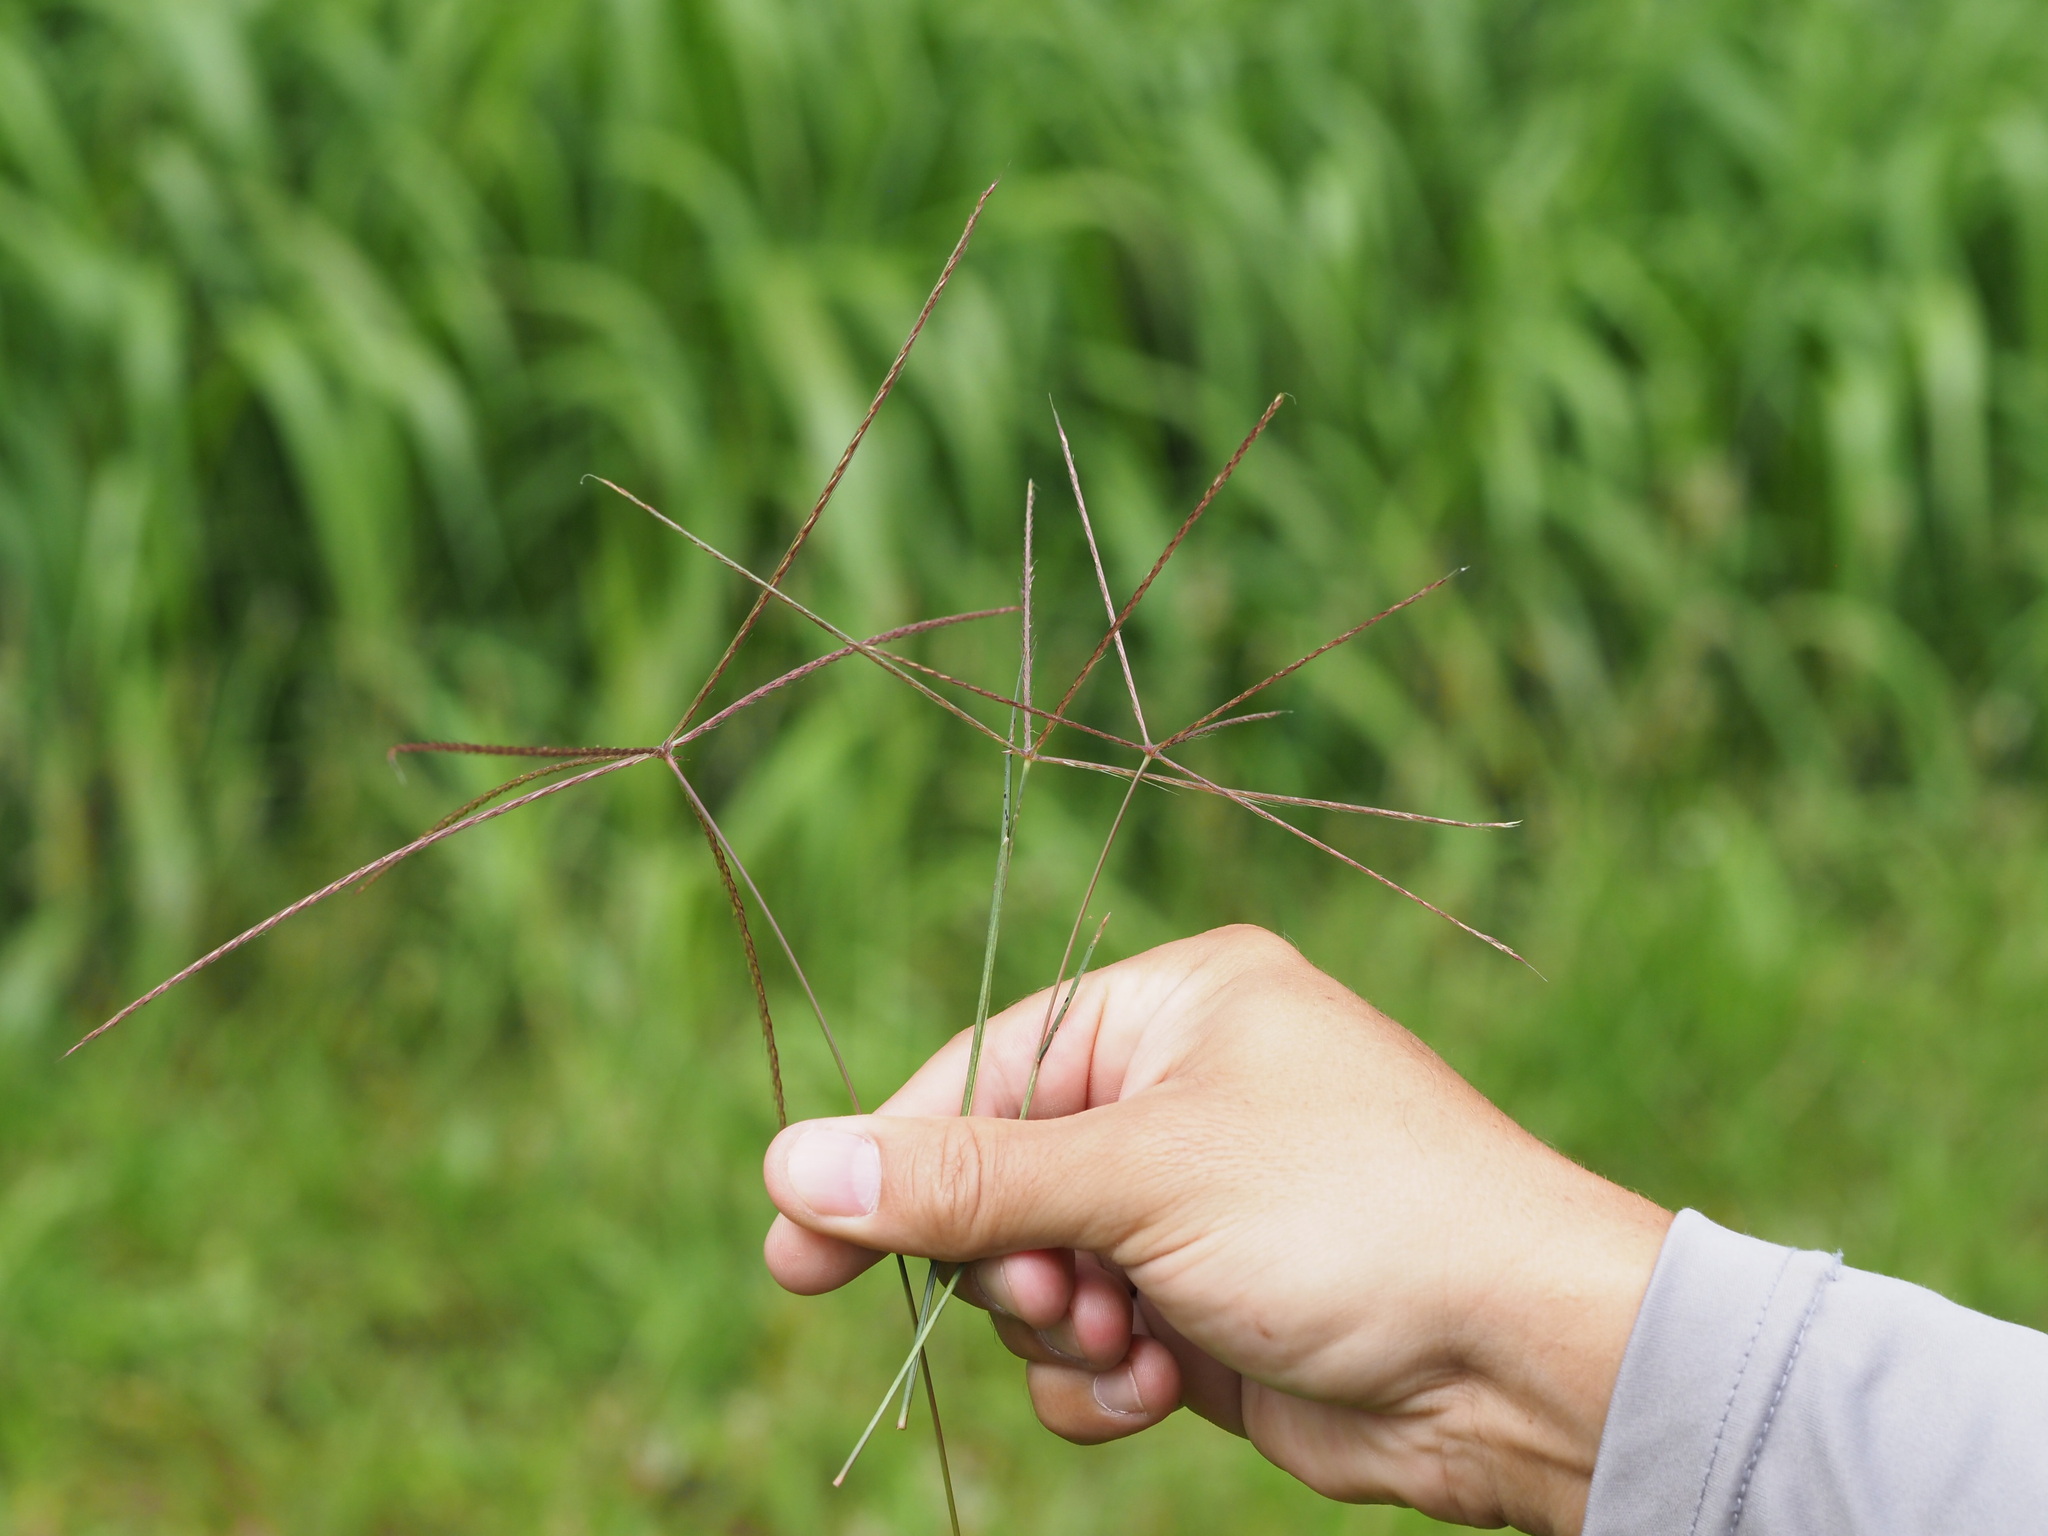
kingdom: Plantae
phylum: Tracheophyta
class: Liliopsida
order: Poales
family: Poaceae
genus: Chloris
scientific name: Chloris divaricata
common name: Spreading windmill grass
